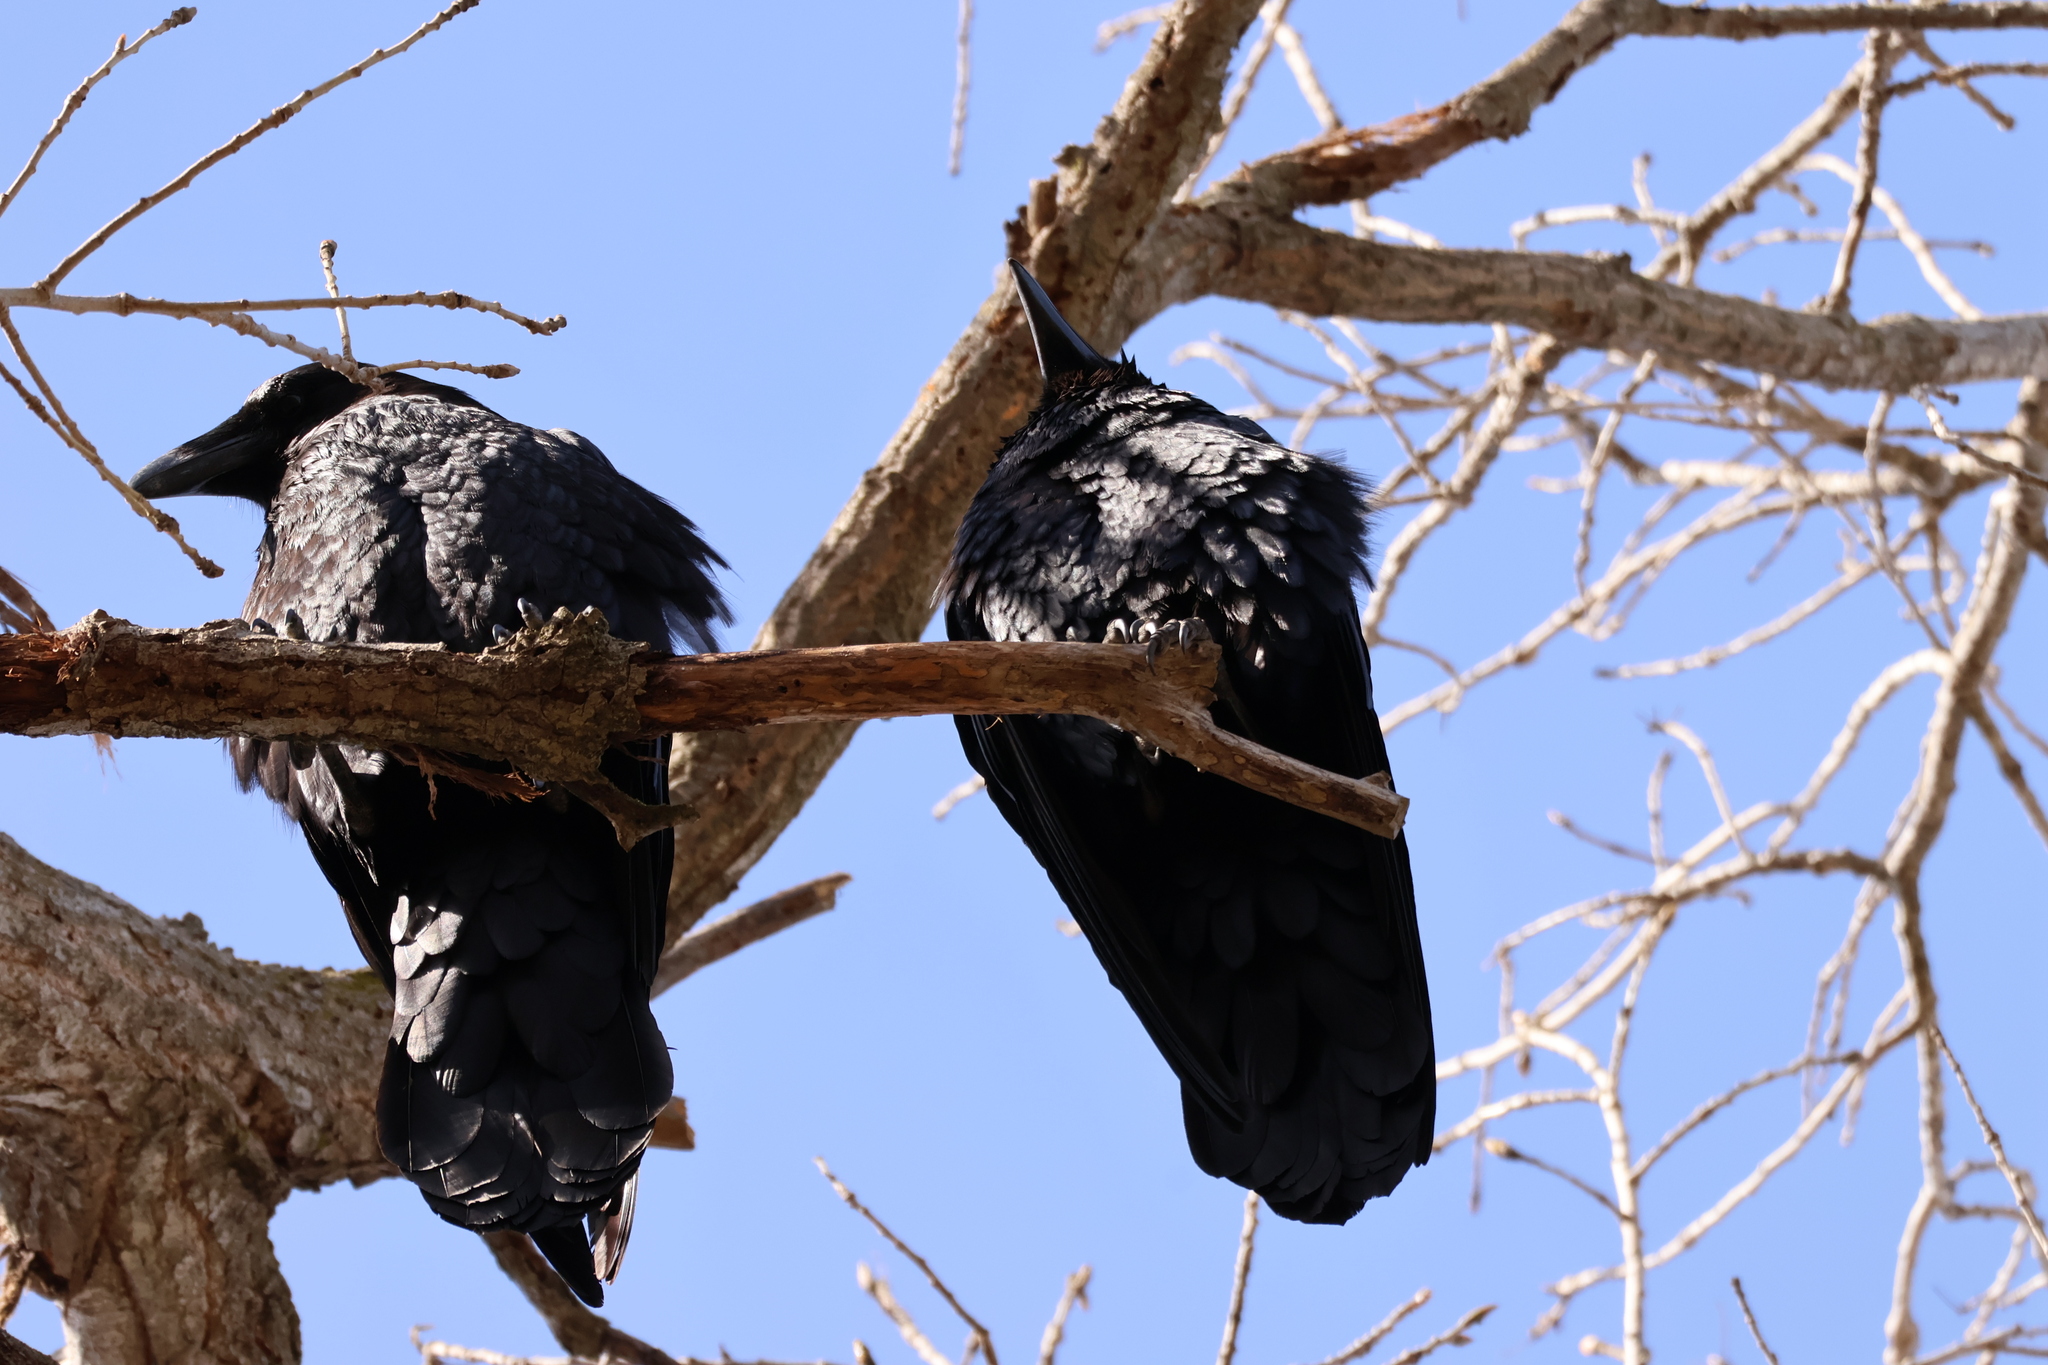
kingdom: Animalia
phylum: Chordata
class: Aves
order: Passeriformes
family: Corvidae
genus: Corvus
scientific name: Corvus corax
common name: Common raven
